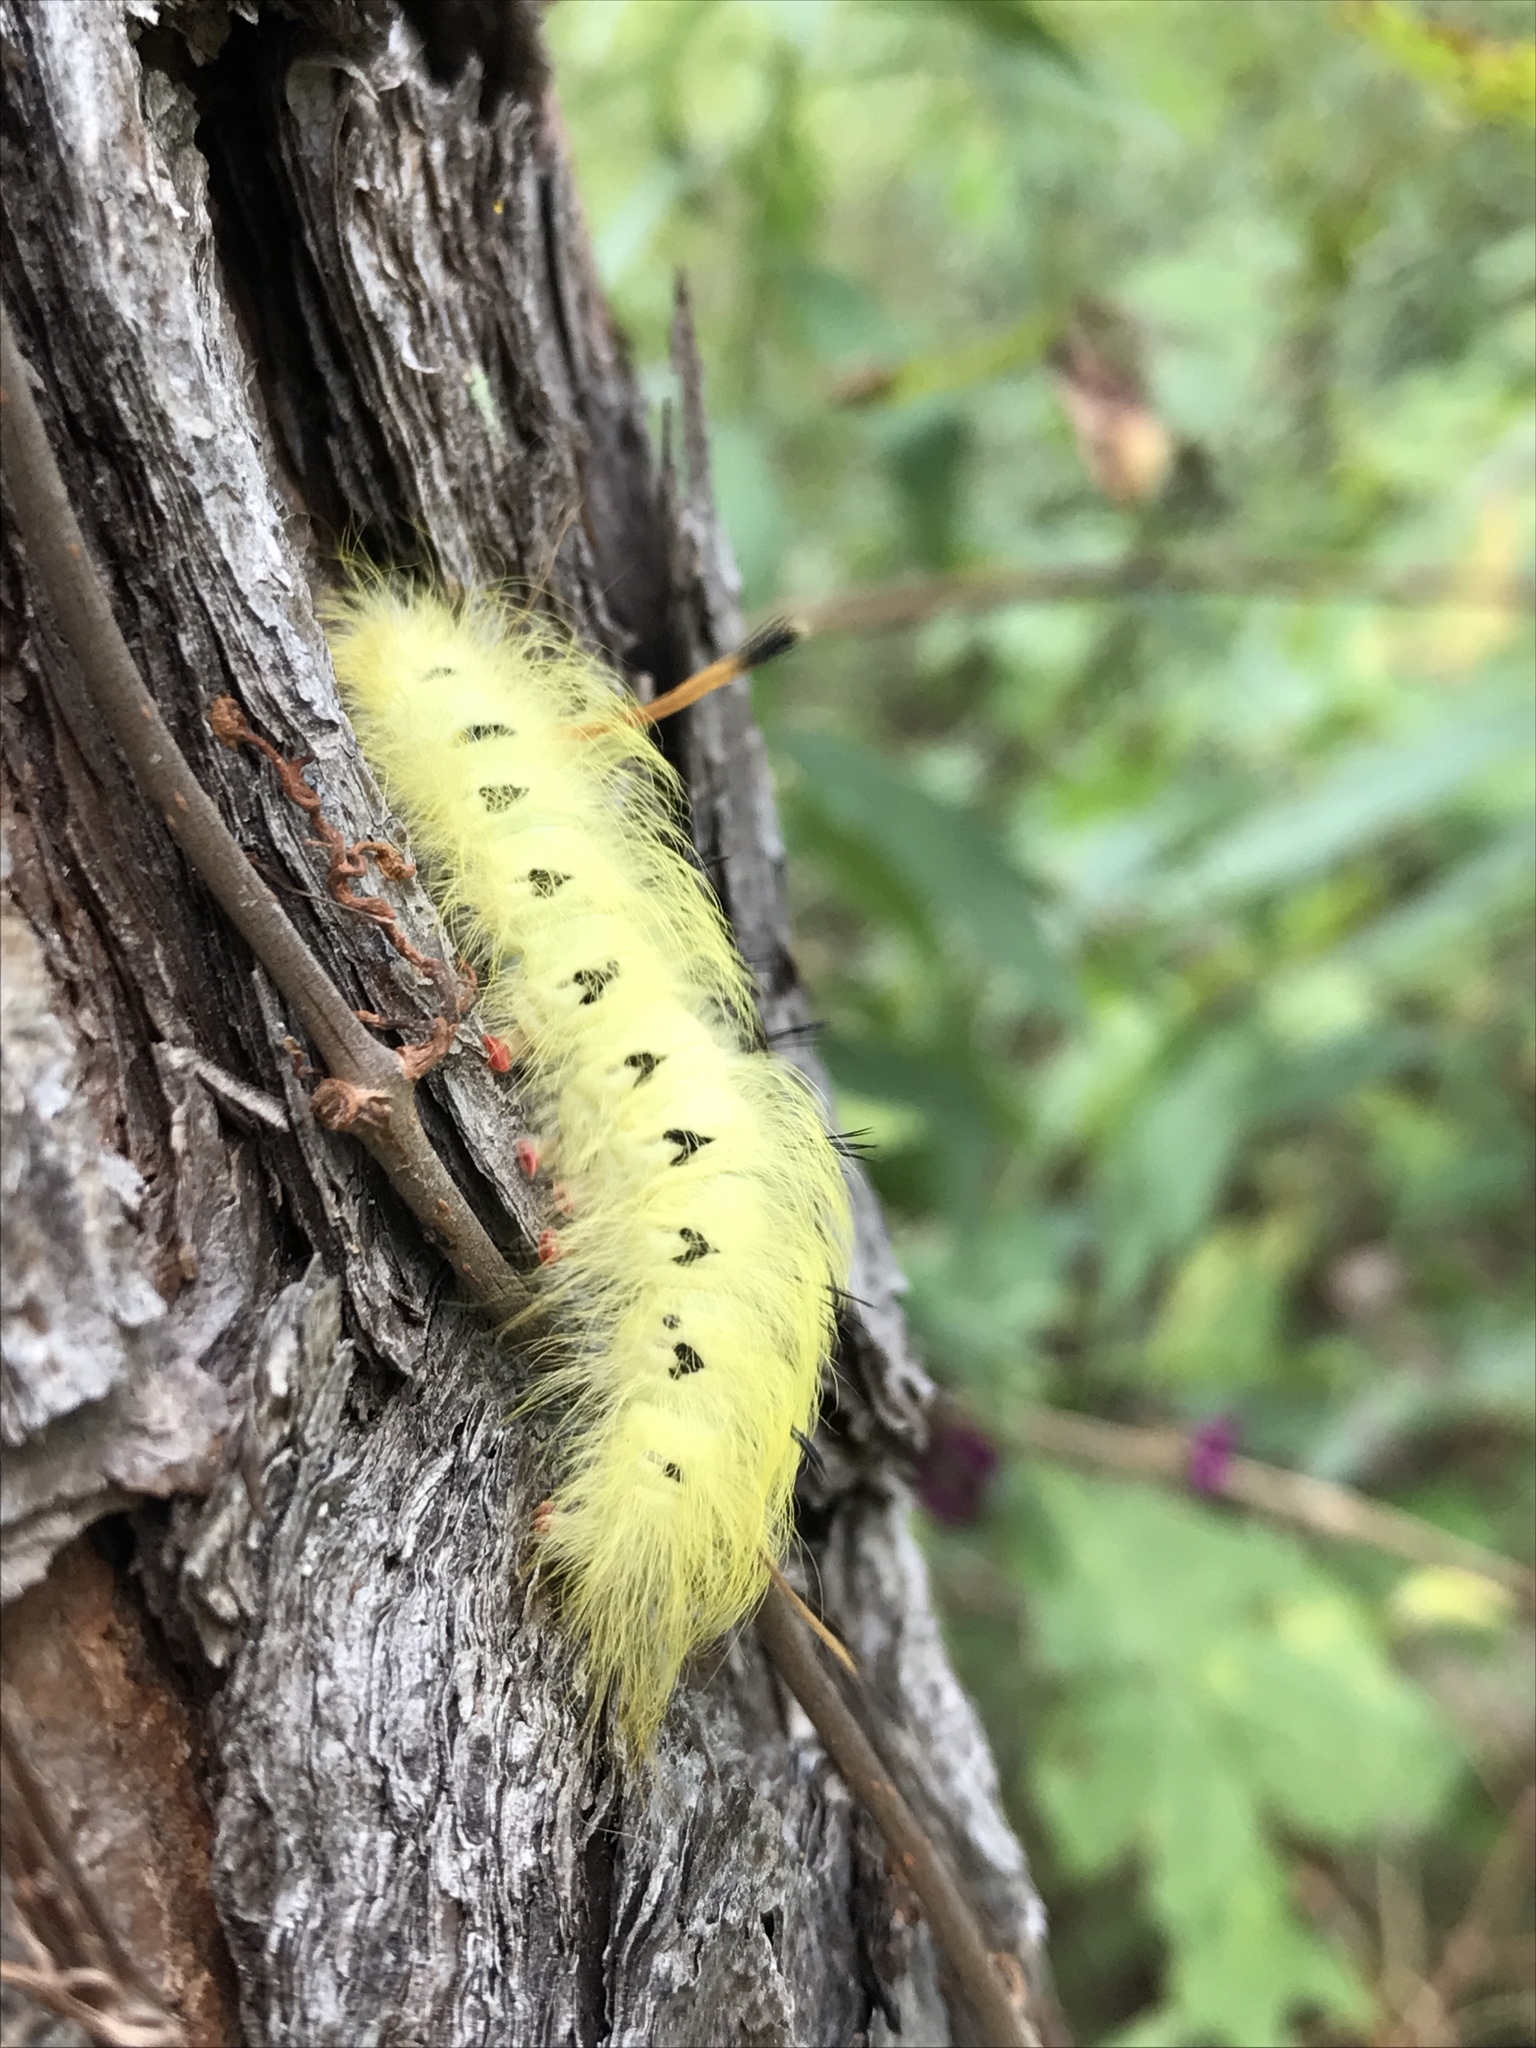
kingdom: Animalia
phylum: Arthropoda
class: Insecta
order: Lepidoptera
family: Apatelodidae
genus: Hygrochroa
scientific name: Hygrochroa Apatelodes torrefacta
